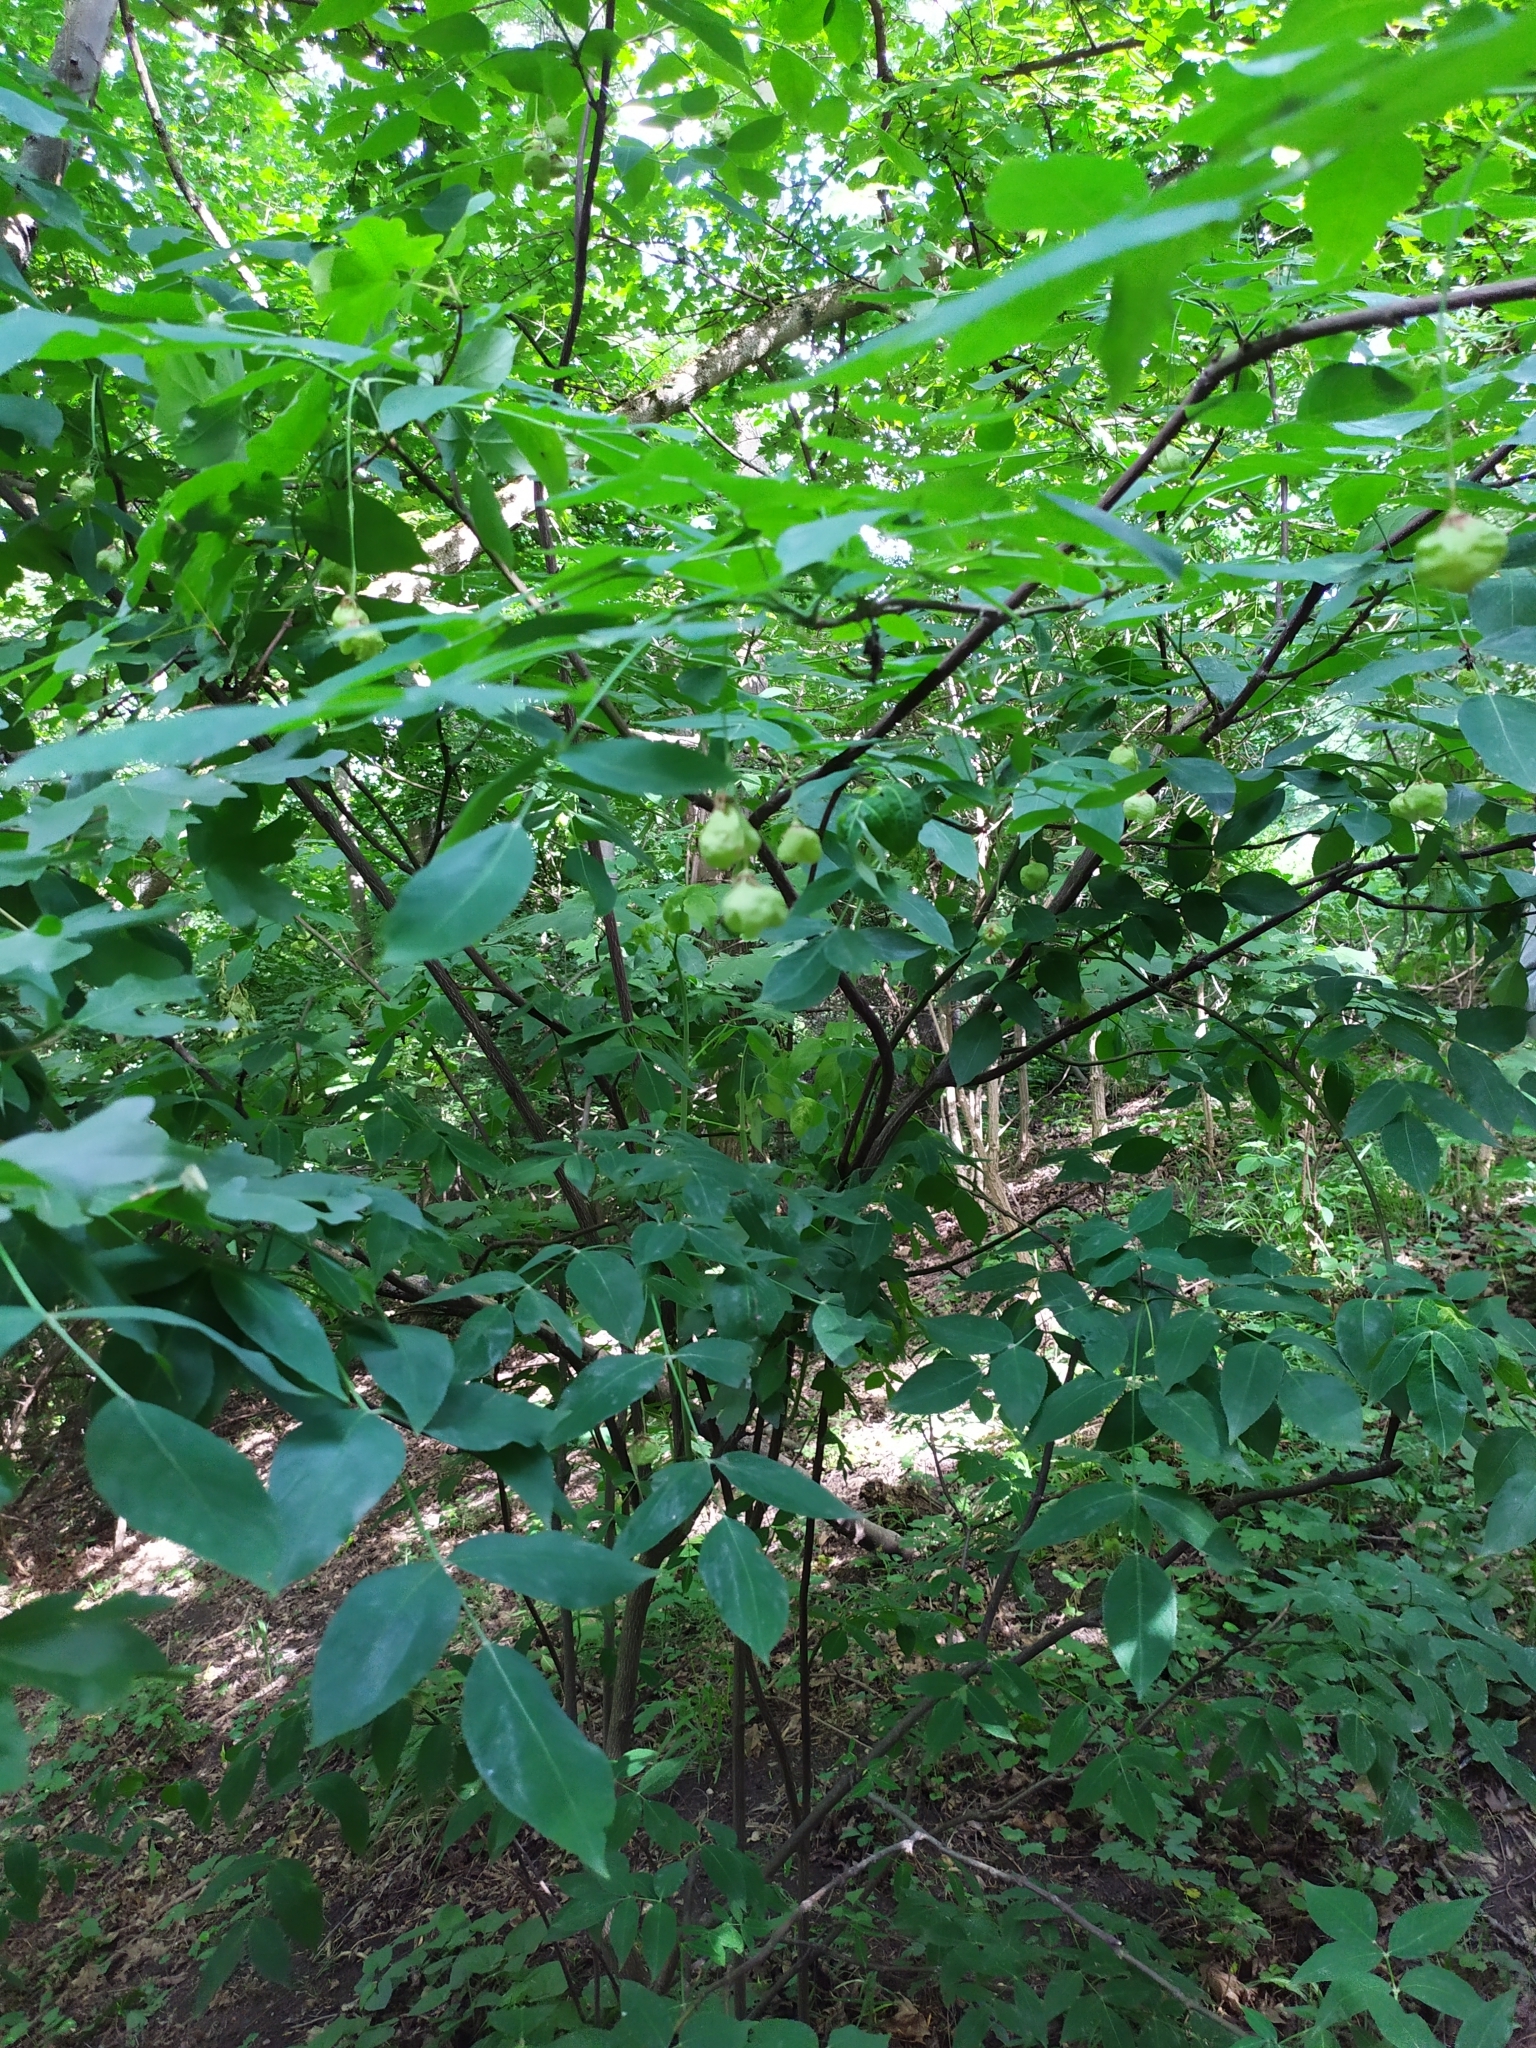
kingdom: Plantae
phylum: Tracheophyta
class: Magnoliopsida
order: Crossosomatales
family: Staphyleaceae
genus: Staphylea
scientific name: Staphylea pinnata
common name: Bladdernut
